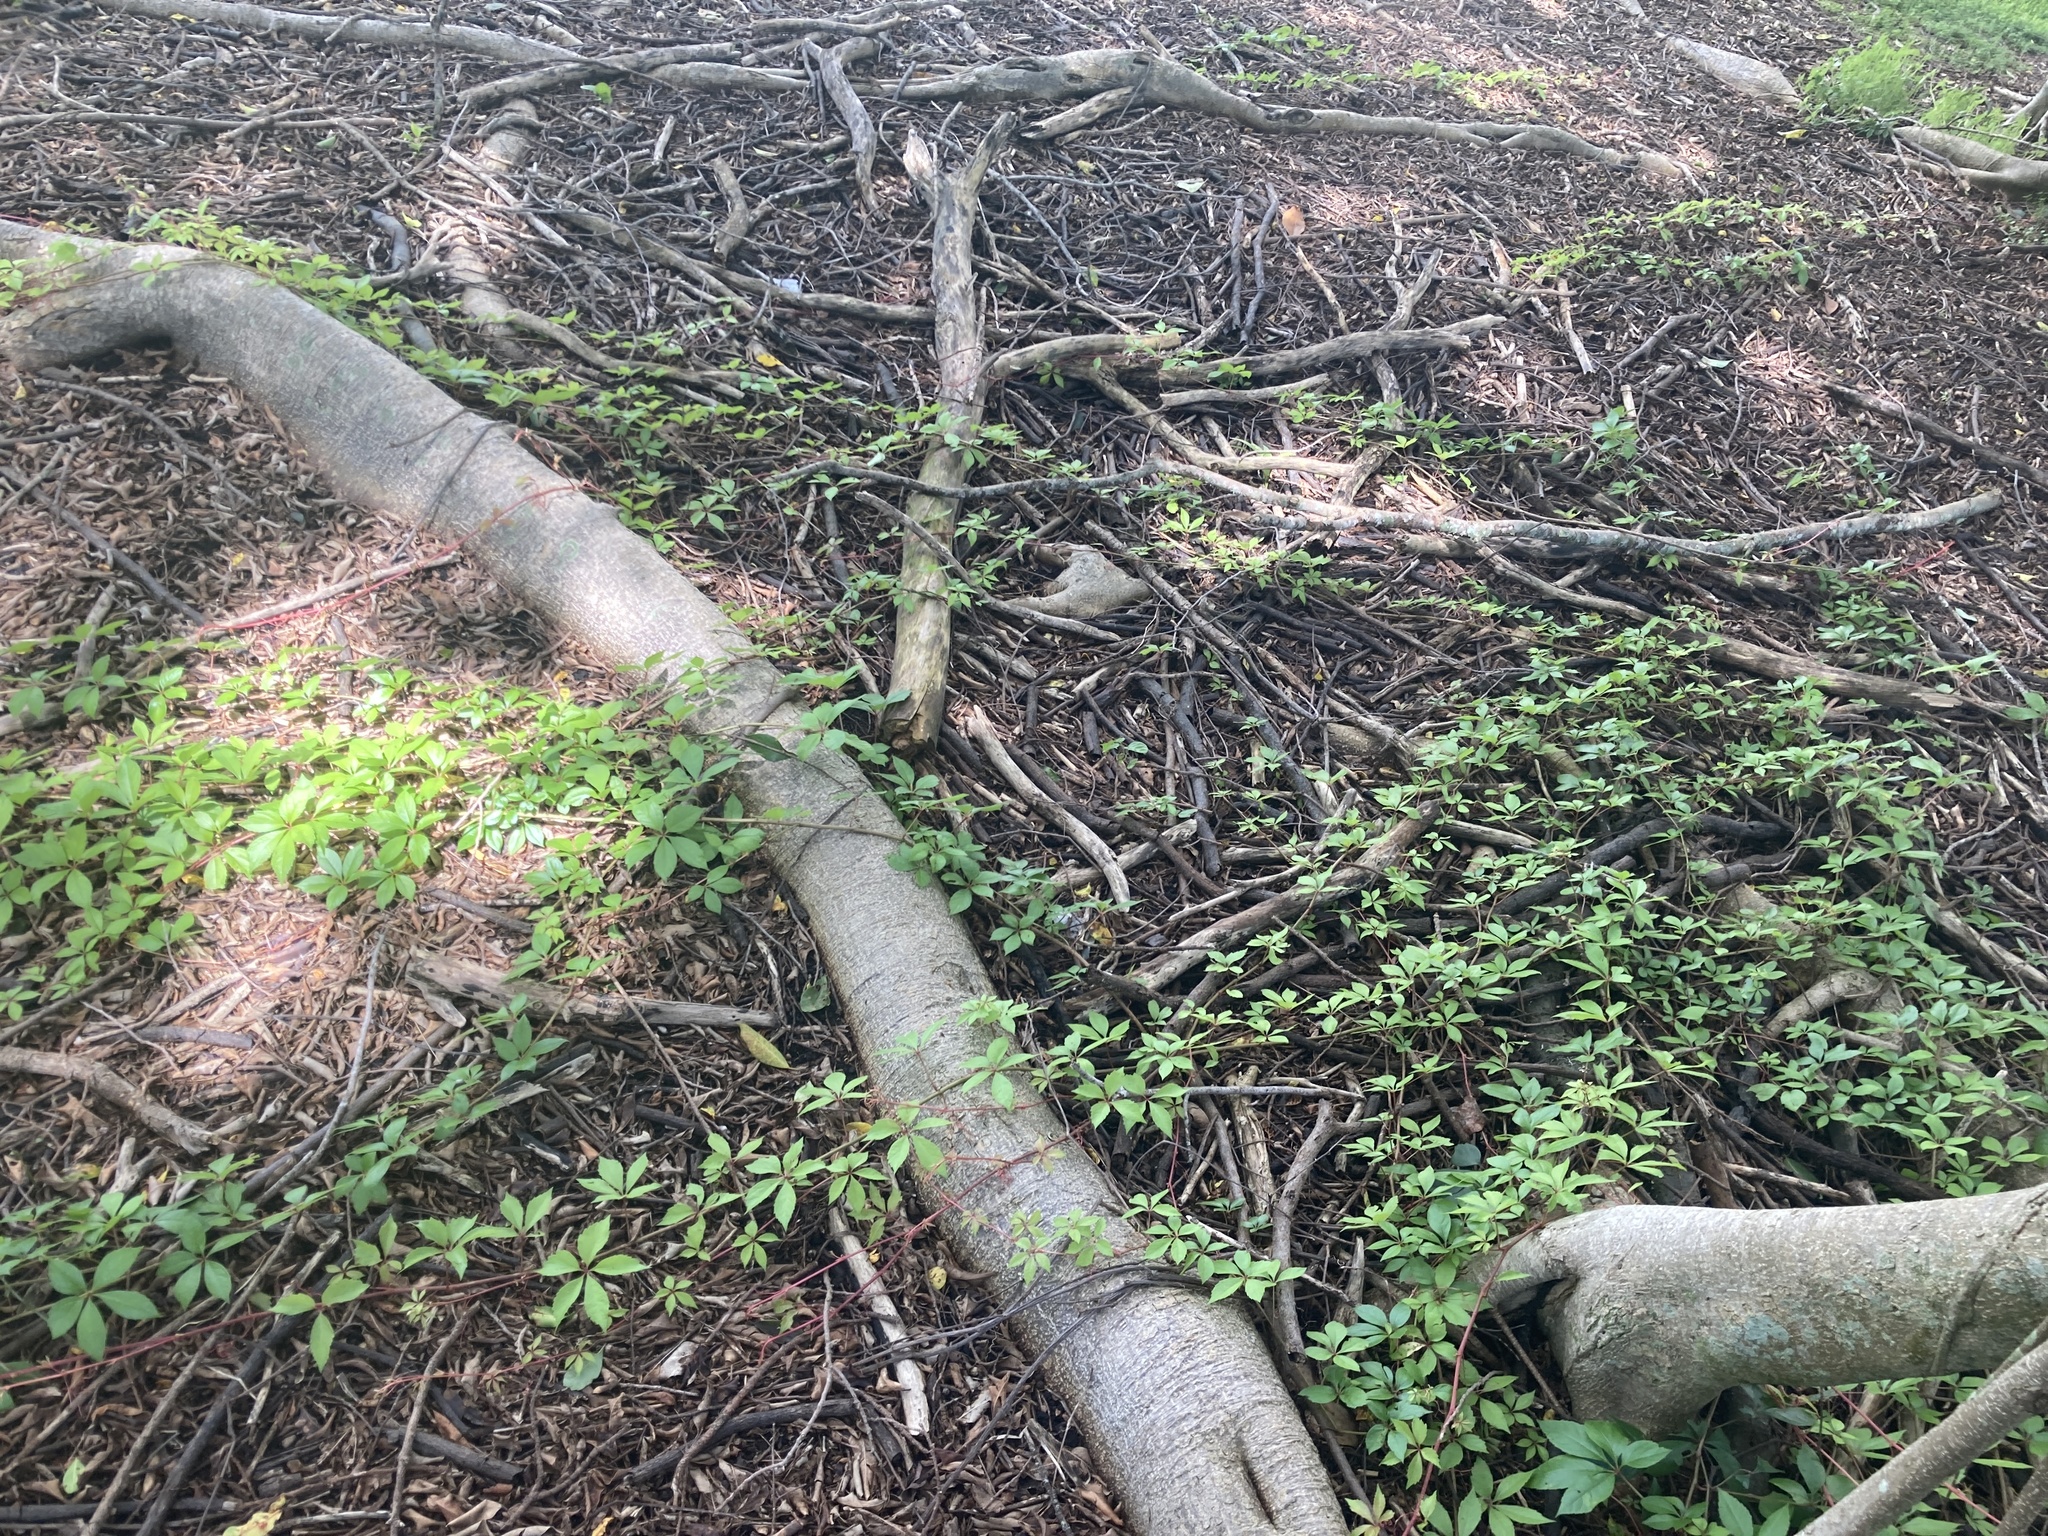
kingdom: Plantae
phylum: Tracheophyta
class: Magnoliopsida
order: Vitales
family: Vitaceae
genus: Parthenocissus
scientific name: Parthenocissus quinquefolia
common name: Virginia-creeper
